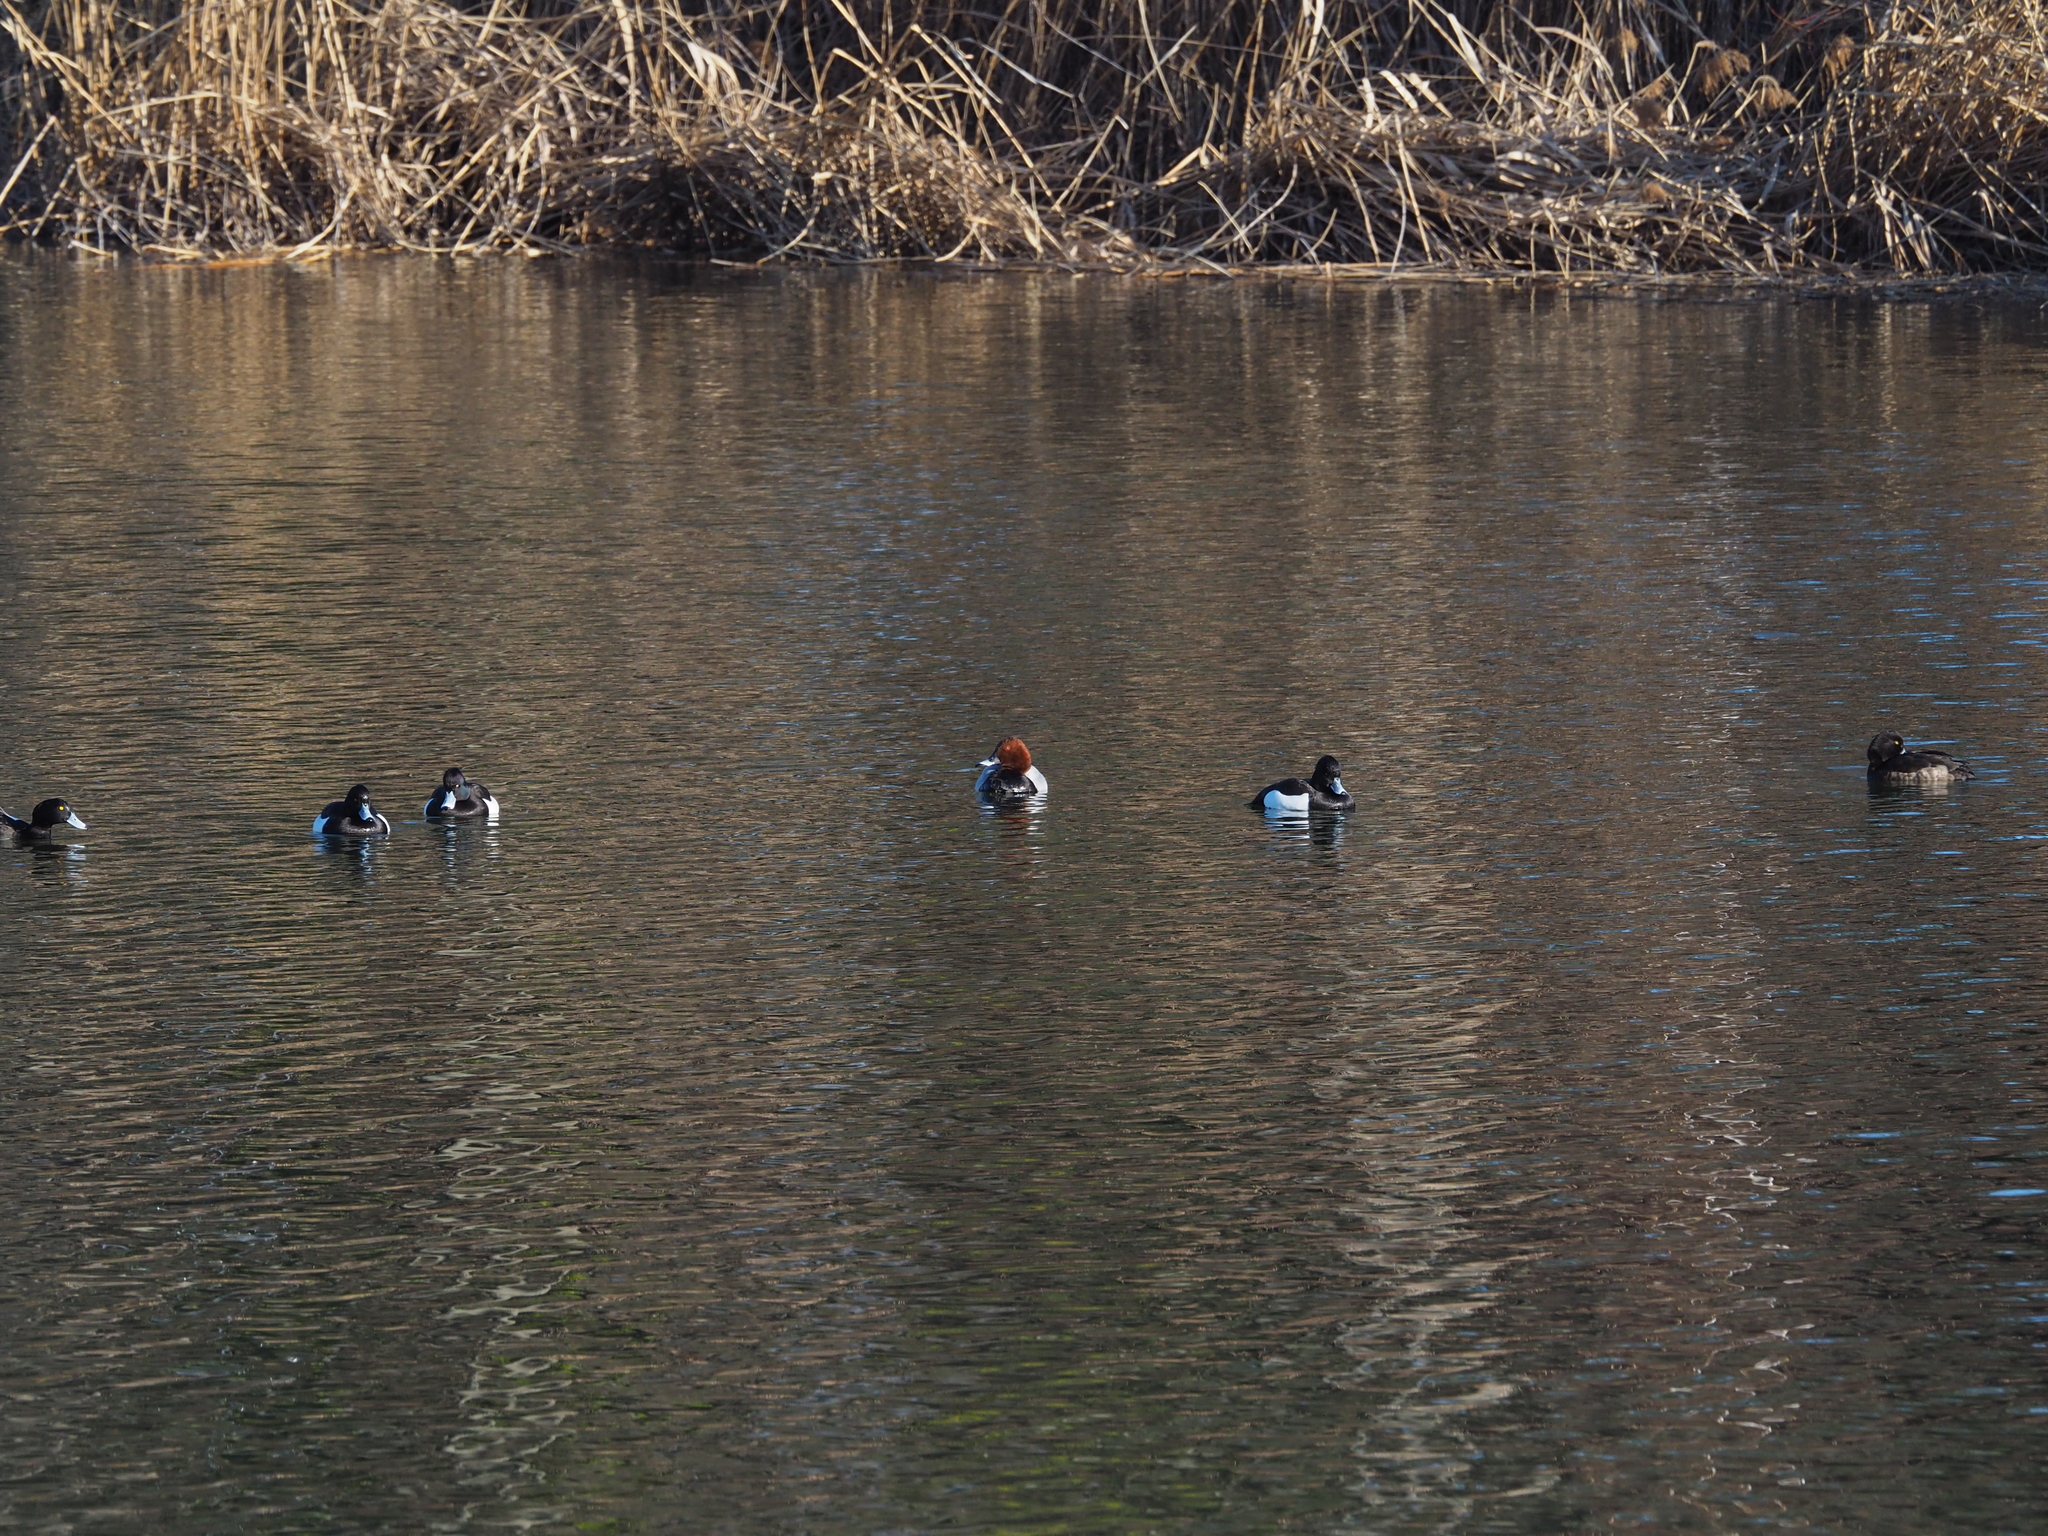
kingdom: Animalia
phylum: Chordata
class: Aves
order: Anseriformes
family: Anatidae
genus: Aythya
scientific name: Aythya ferina
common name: Common pochard
